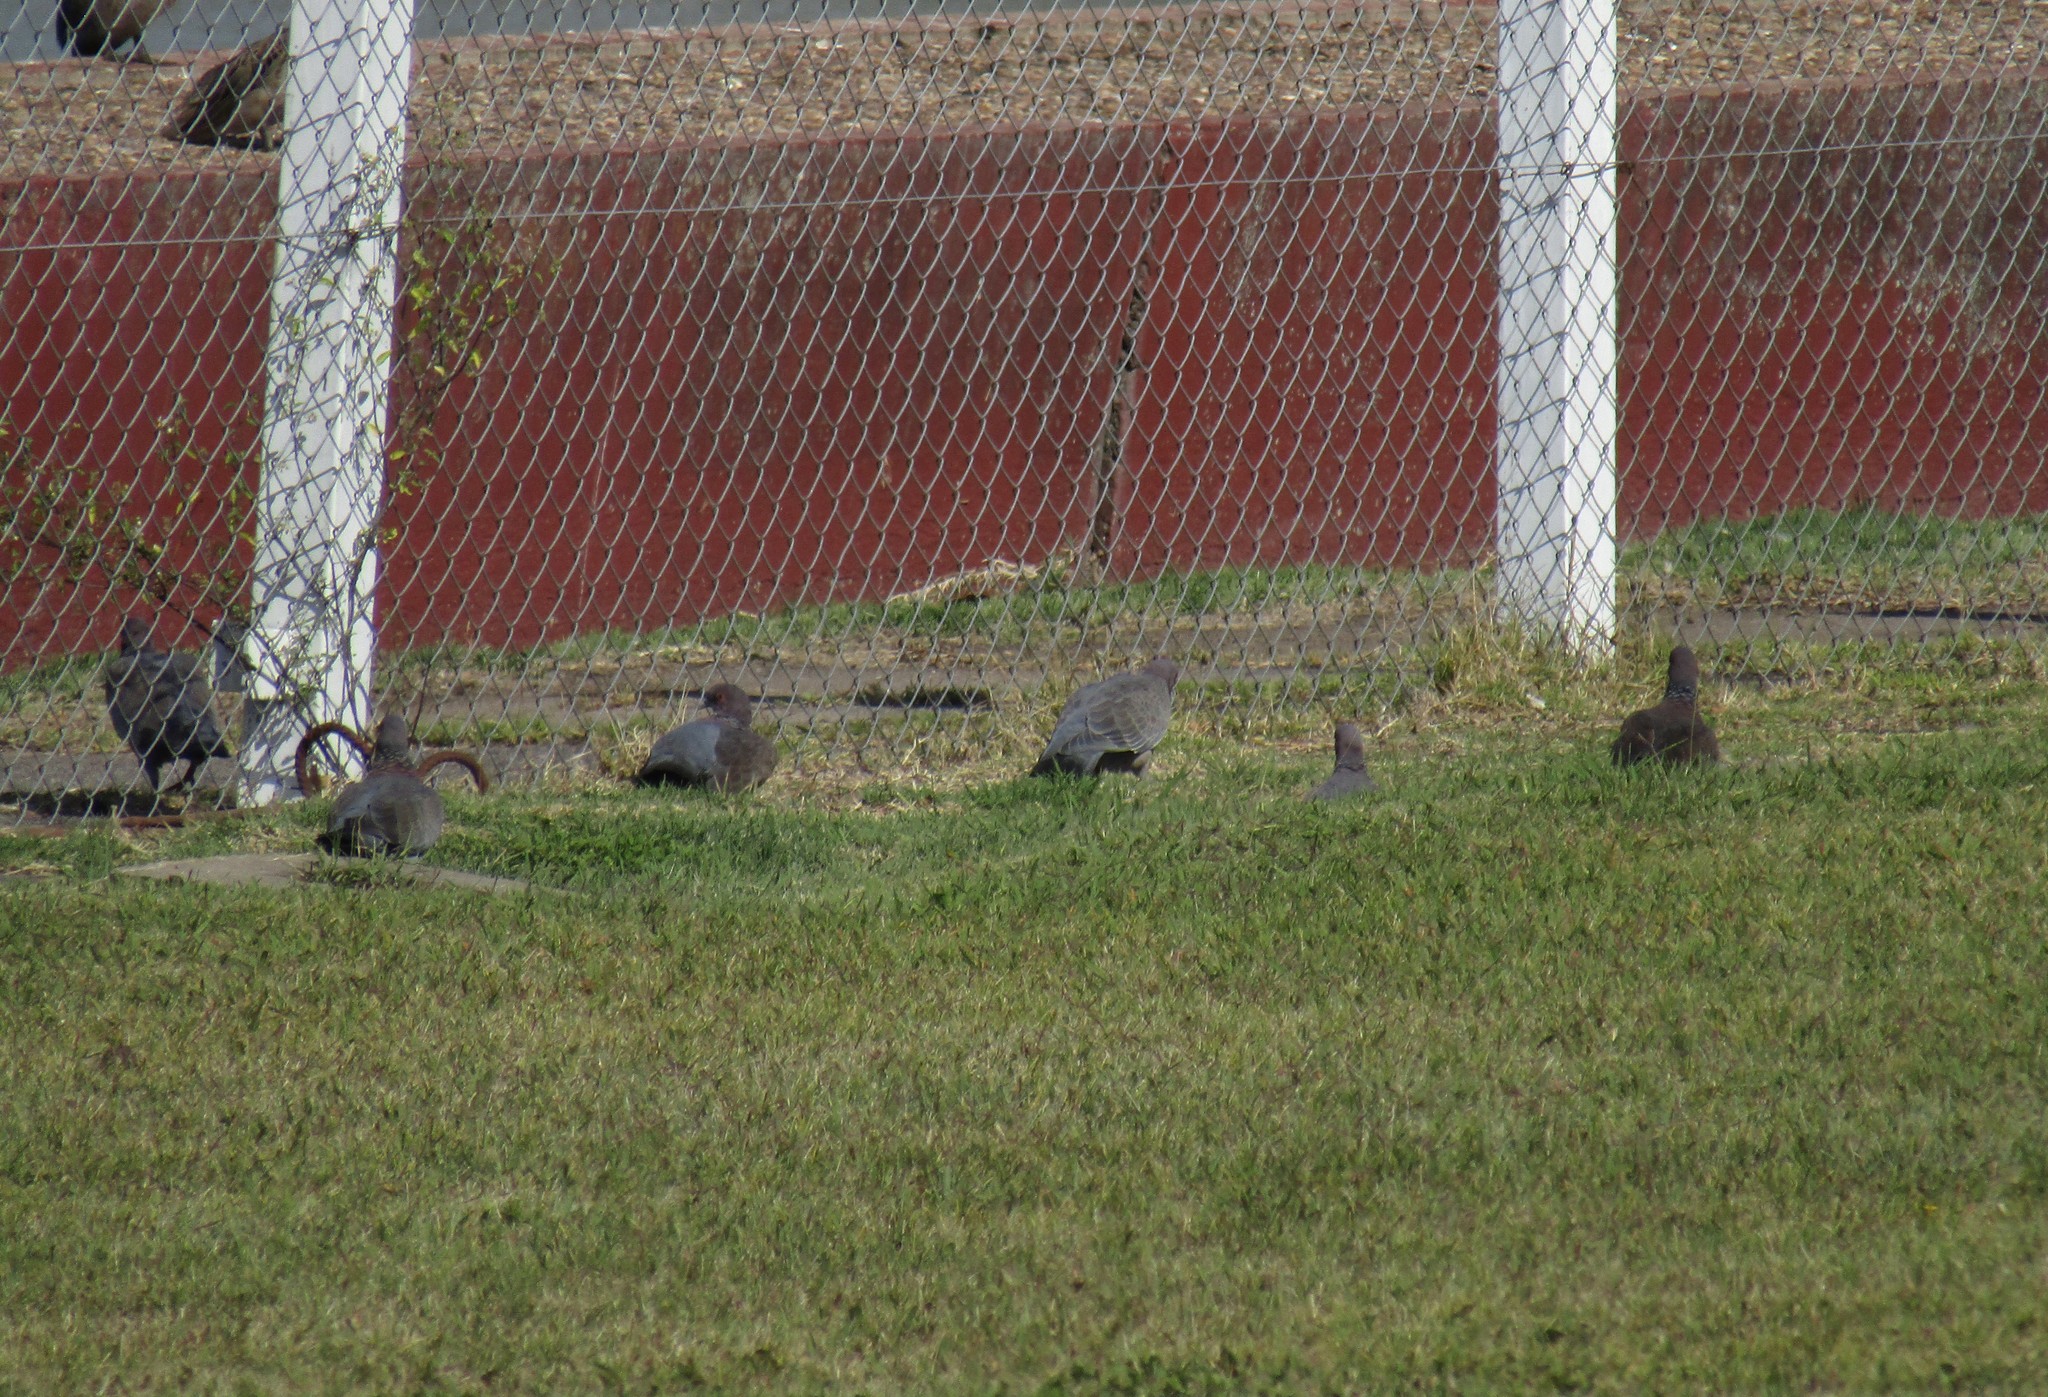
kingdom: Animalia
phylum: Chordata
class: Aves
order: Columbiformes
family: Columbidae
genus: Patagioenas
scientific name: Patagioenas picazuro
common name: Picazuro pigeon
